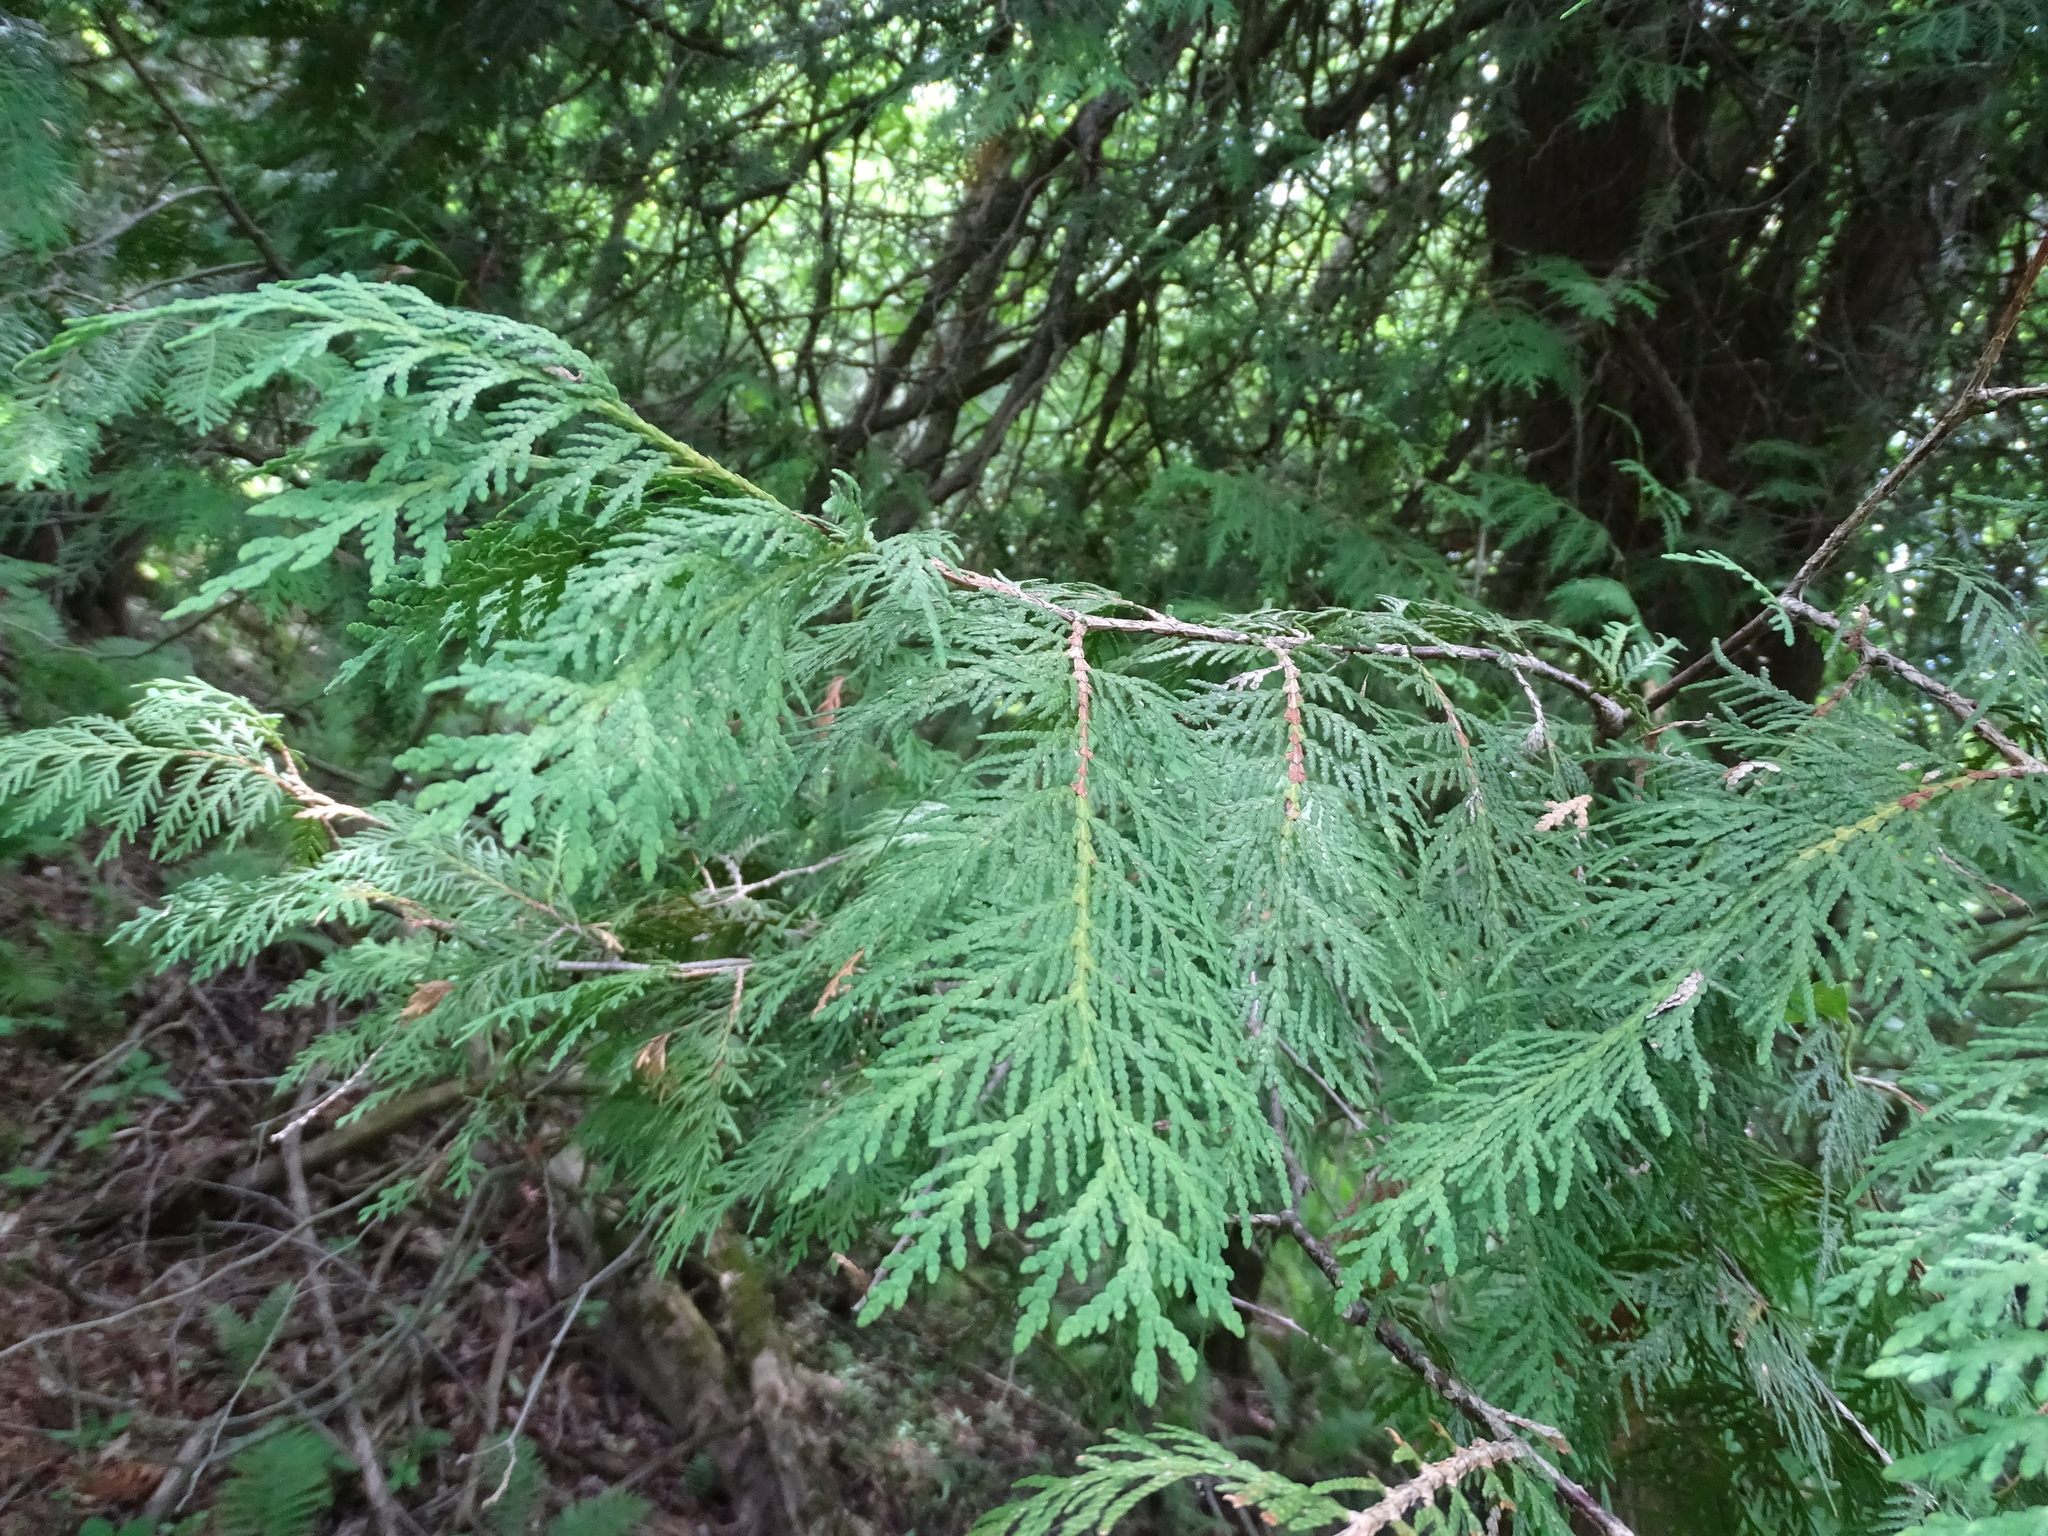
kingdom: Plantae
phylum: Tracheophyta
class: Pinopsida
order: Pinales
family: Cupressaceae
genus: Thuja
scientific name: Thuja occidentalis
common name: Northern white-cedar
